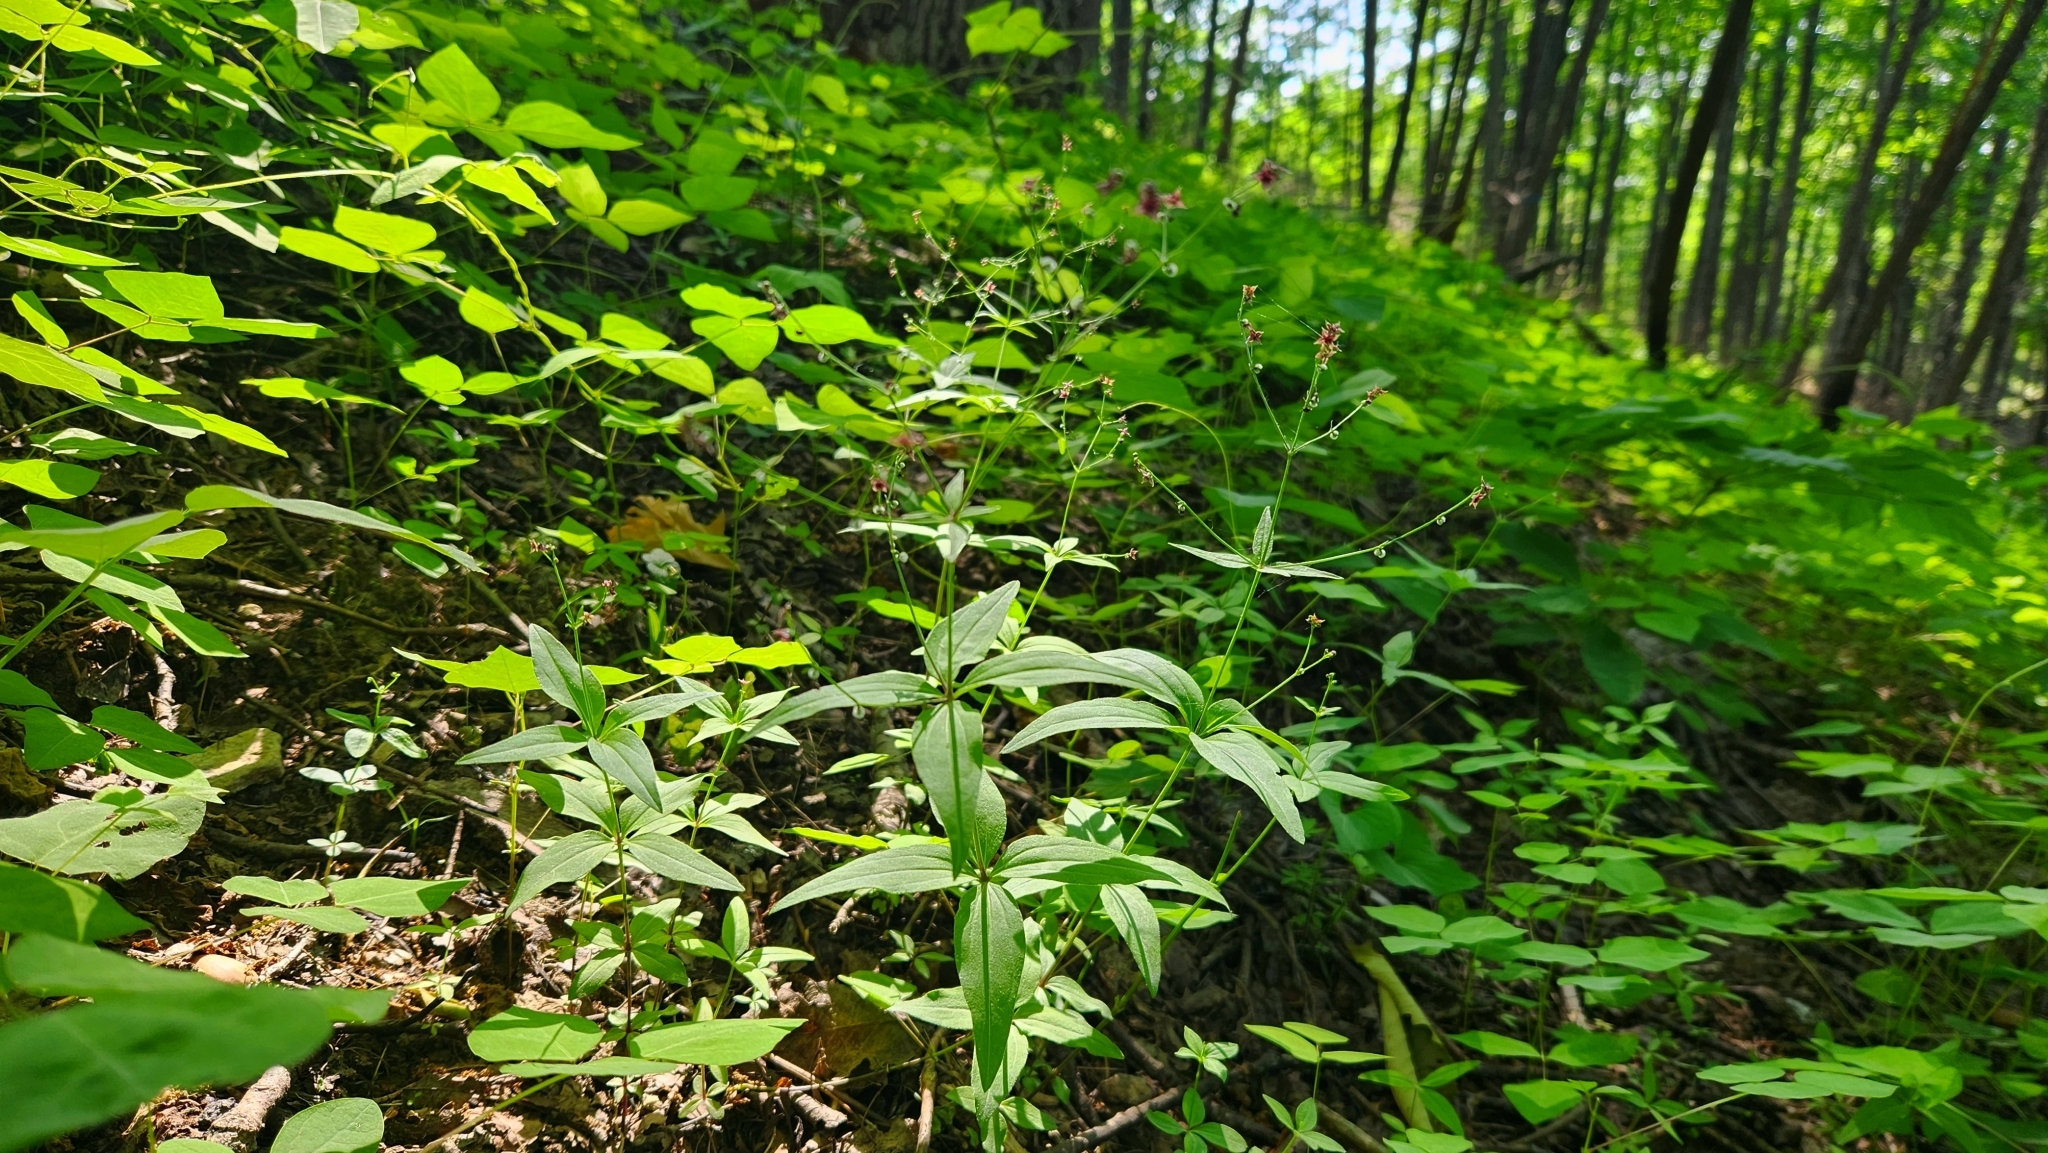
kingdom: Plantae
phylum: Tracheophyta
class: Magnoliopsida
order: Gentianales
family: Rubiaceae
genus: Galium
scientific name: Galium lanceolatum
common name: Lance-leaved wild licorice
